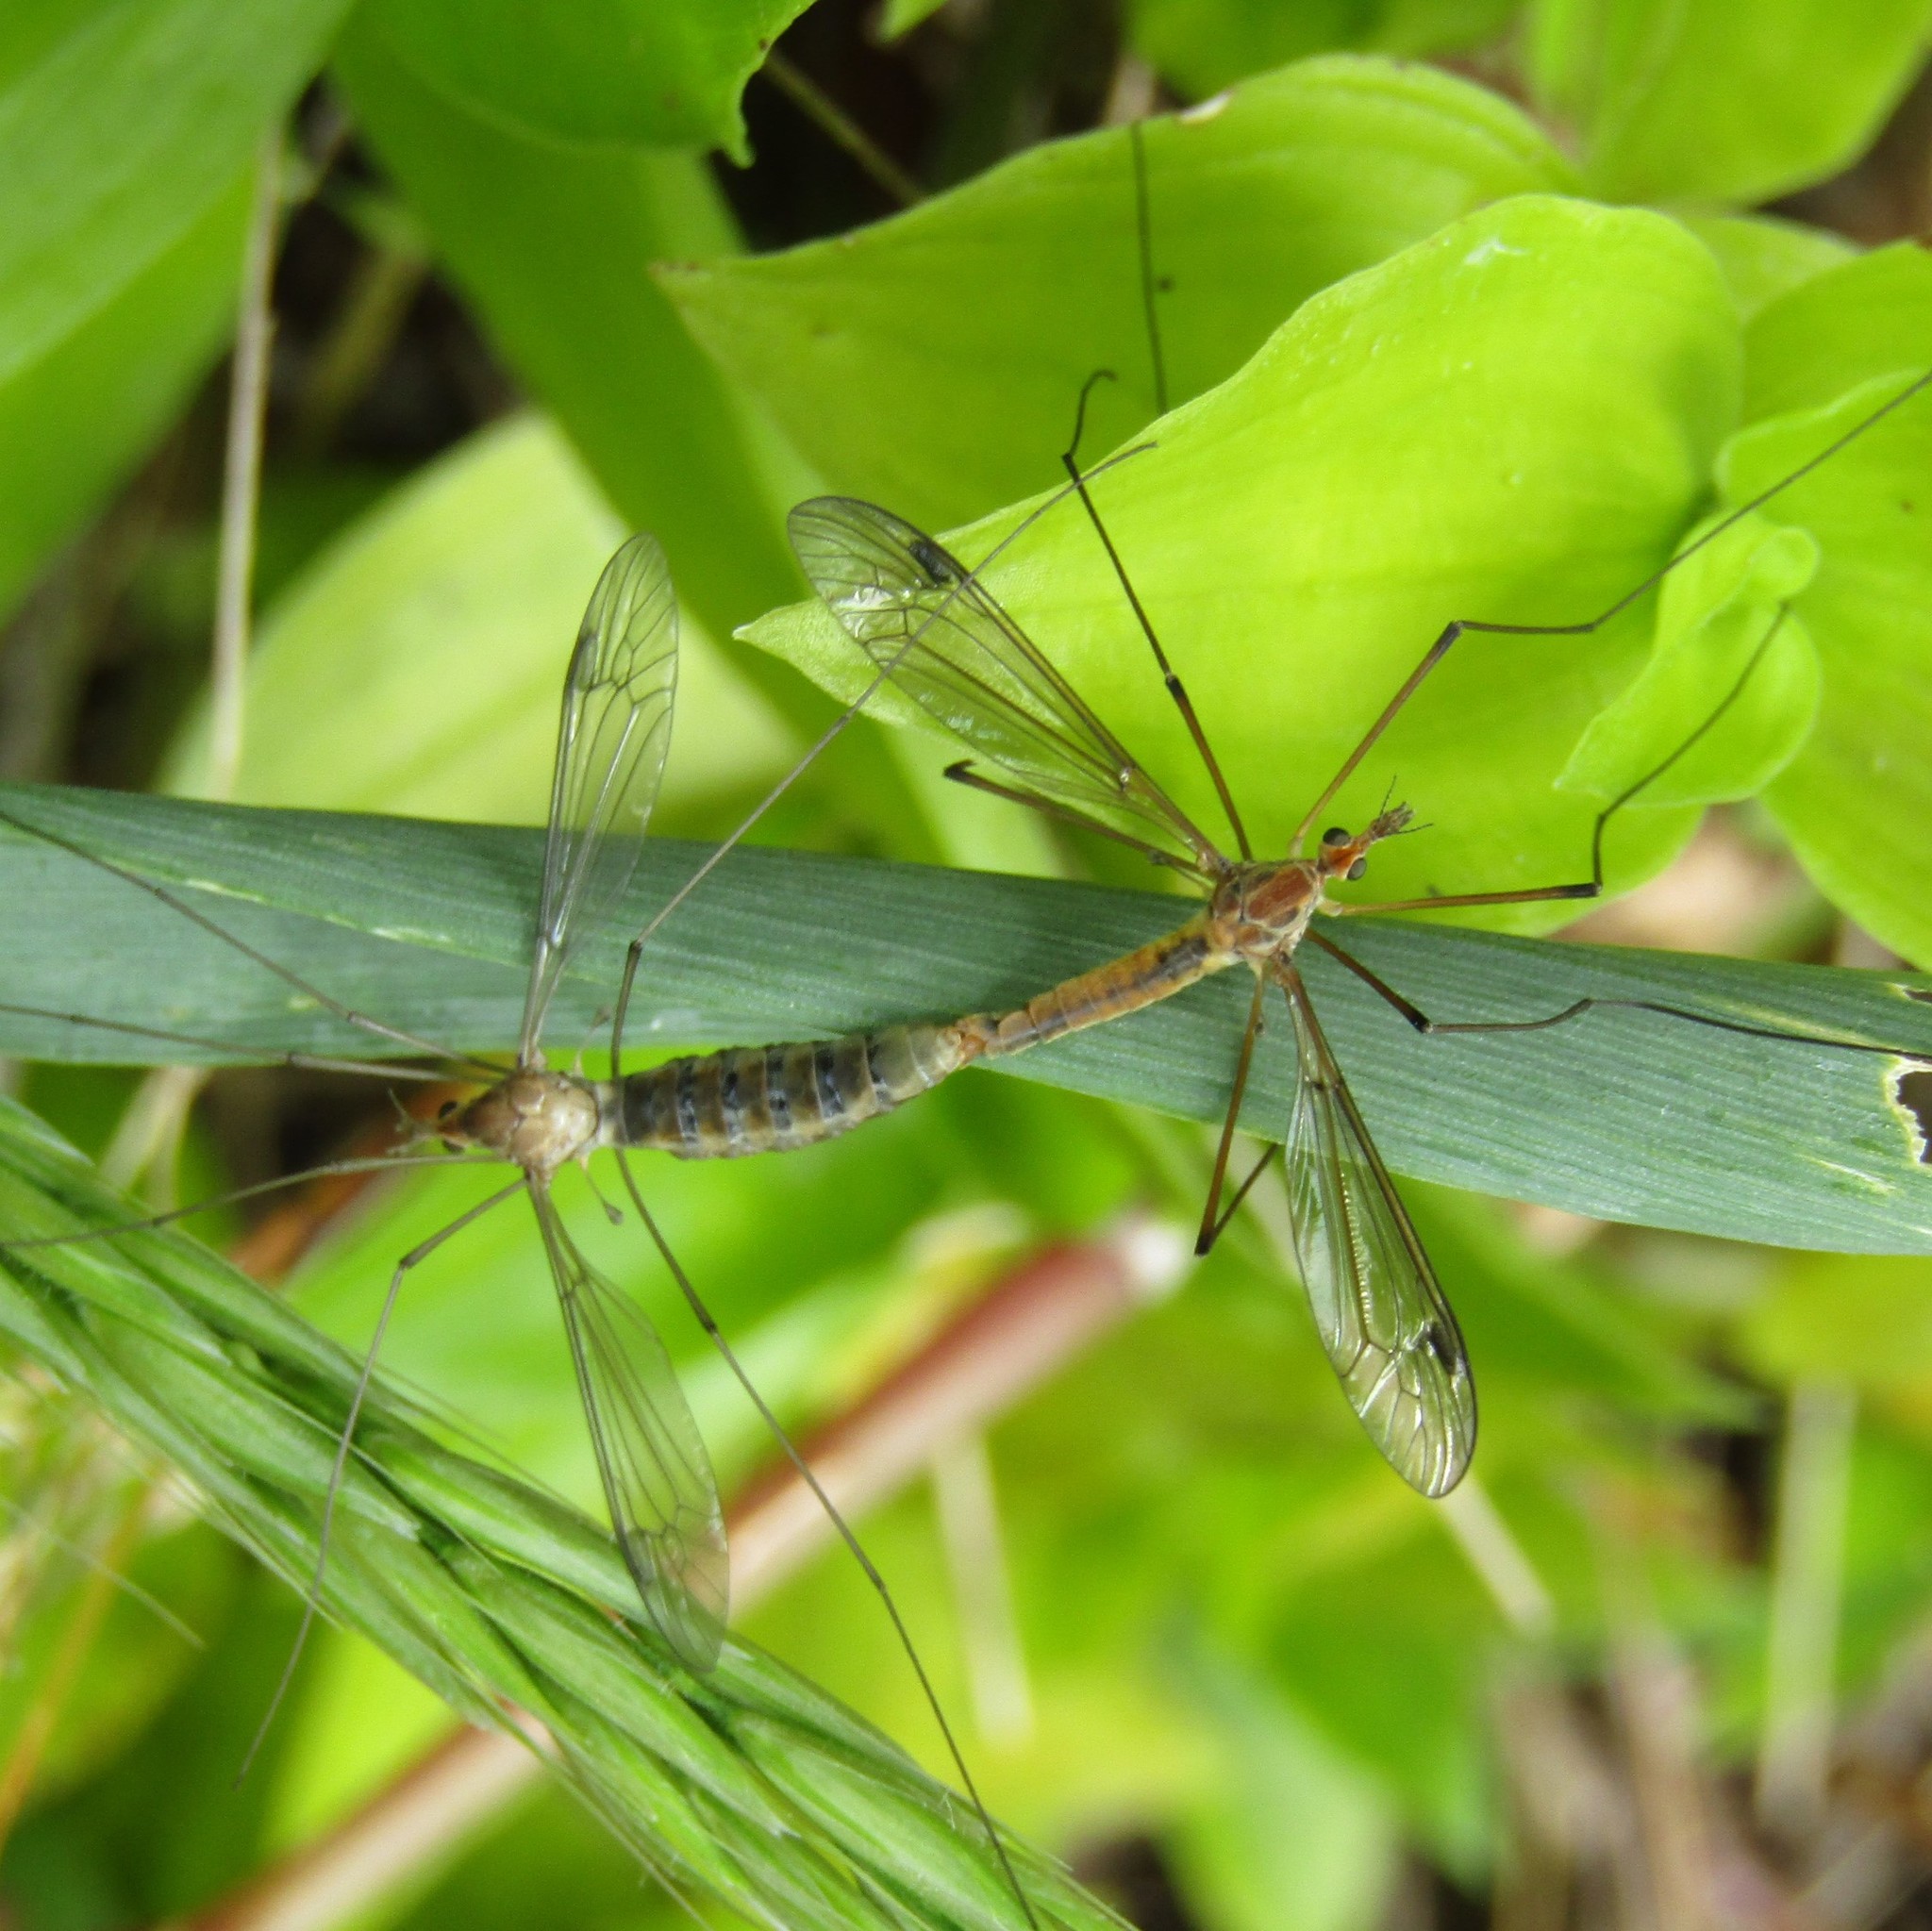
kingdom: Animalia
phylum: Arthropoda
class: Insecta
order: Diptera
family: Tipulidae
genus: Leptotarsus
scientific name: Leptotarsus dichroithorax
